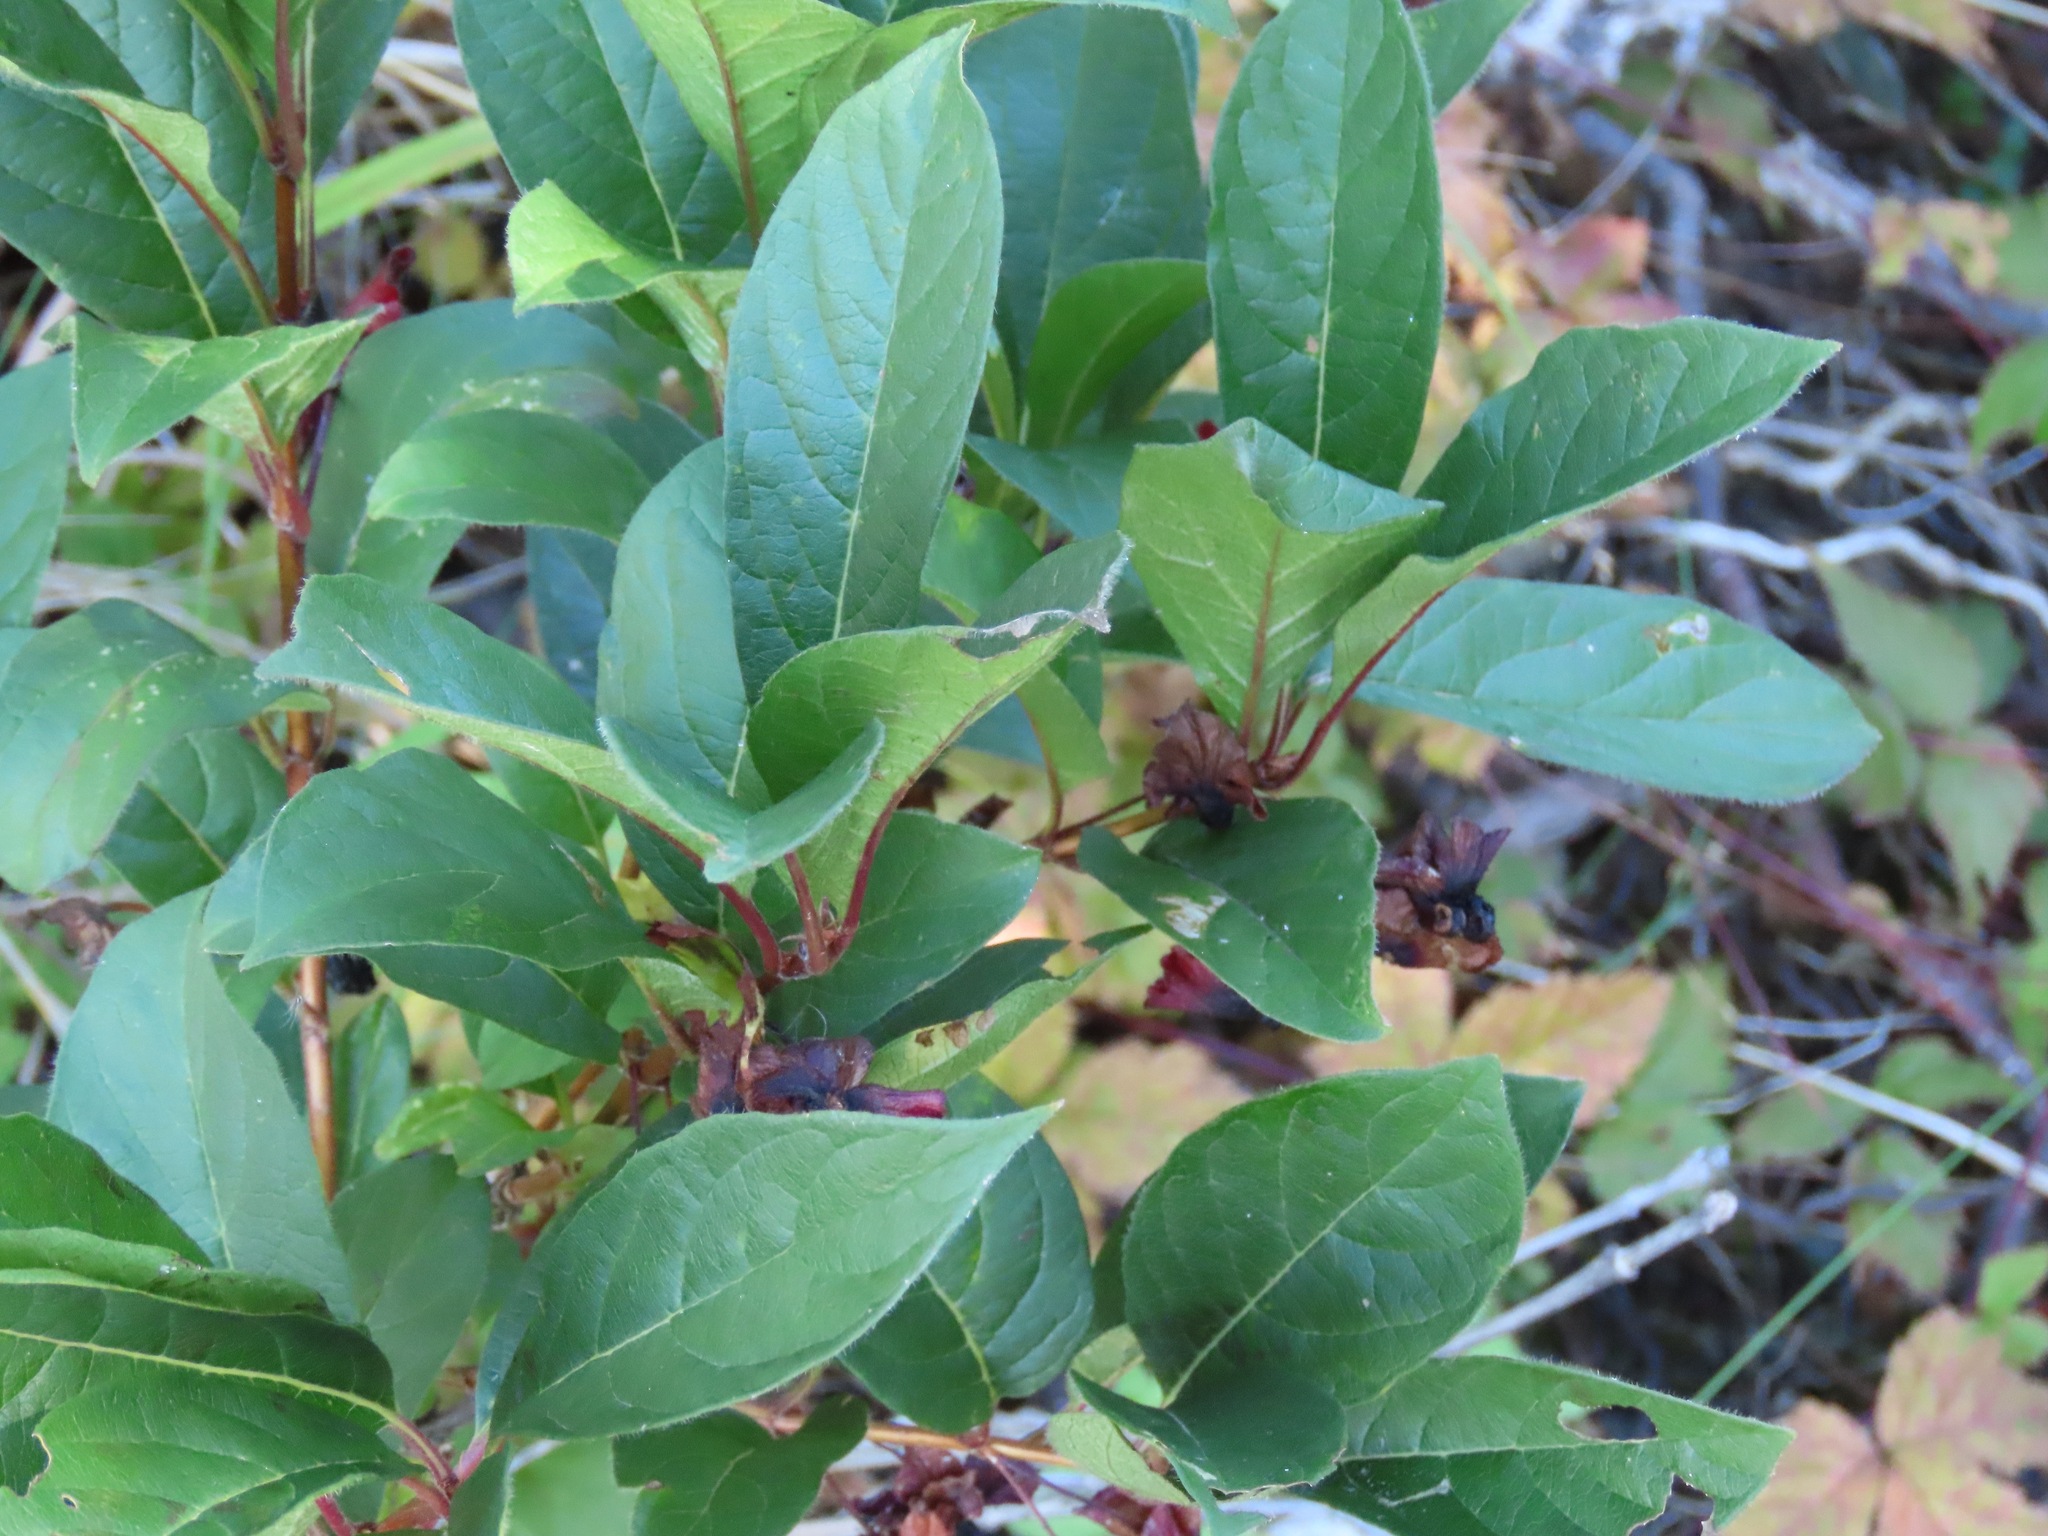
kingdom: Plantae
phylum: Tracheophyta
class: Magnoliopsida
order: Dipsacales
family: Caprifoliaceae
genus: Lonicera
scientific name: Lonicera involucrata
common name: Californian honeysuckle
